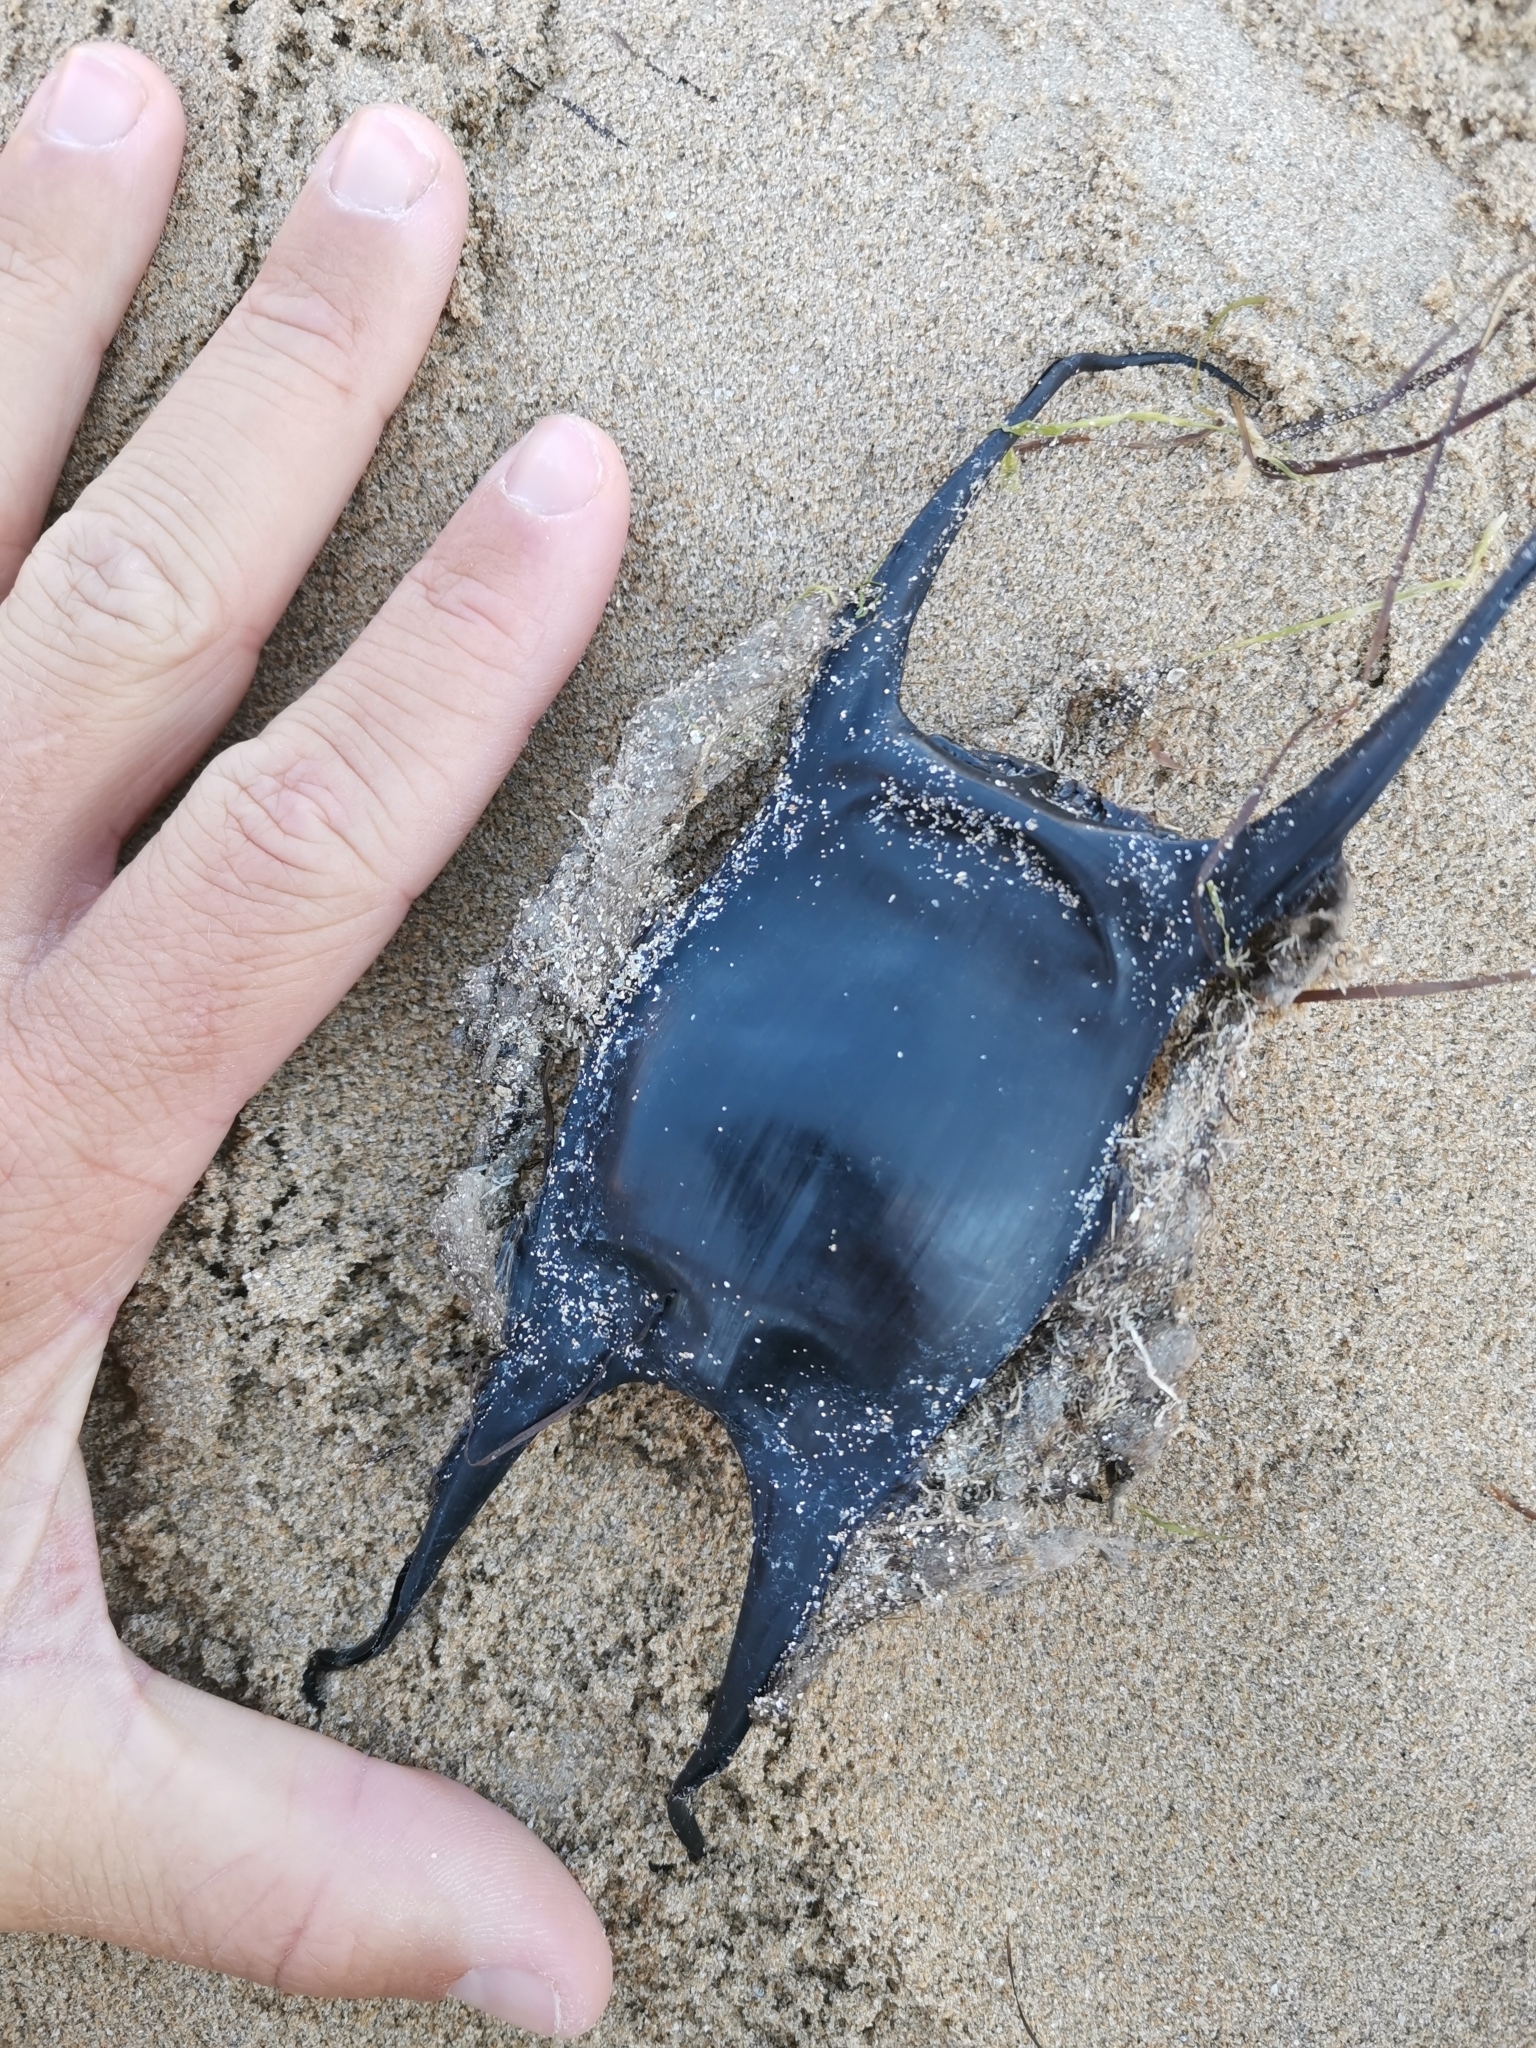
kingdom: Animalia
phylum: Chordata
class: Elasmobranchii
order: Rajiformes
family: Rajidae
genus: Raja
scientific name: Raja brachyura
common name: Blonde ray
